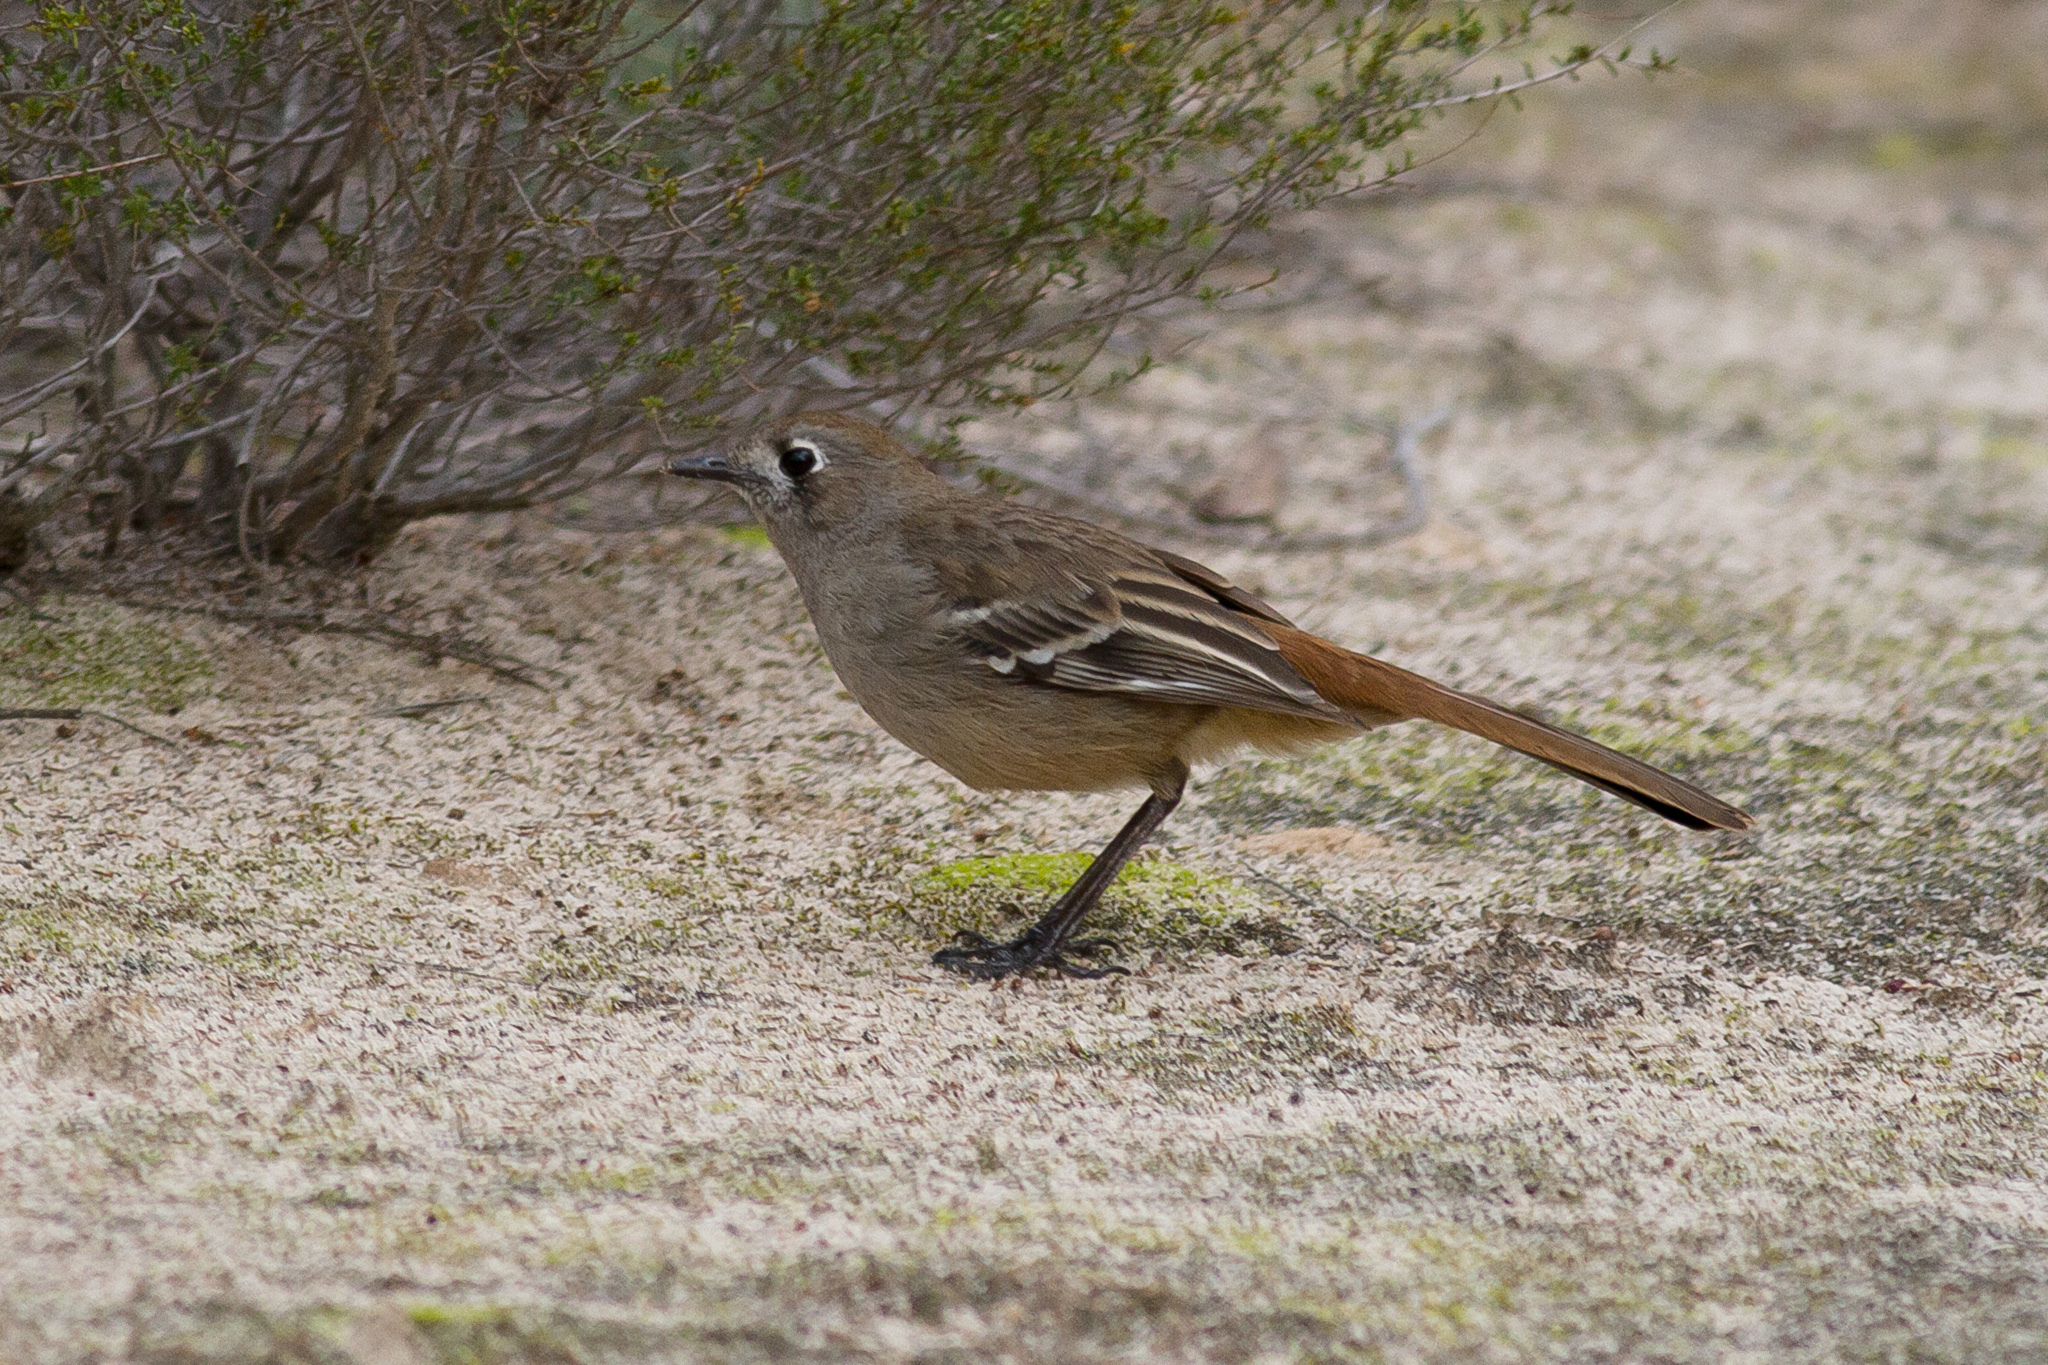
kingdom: Animalia
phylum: Chordata
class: Aves
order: Passeriformes
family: Petroicidae
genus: Drymodes
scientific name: Drymodes brunneopygia
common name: Southern scrub robin
